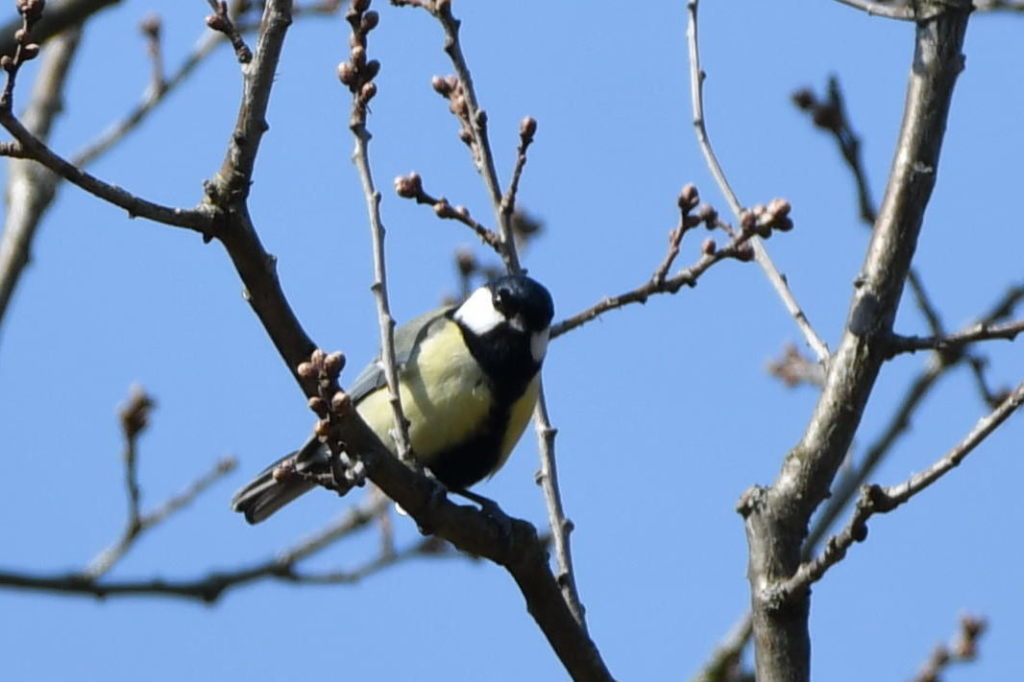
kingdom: Animalia
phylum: Chordata
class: Aves
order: Passeriformes
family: Paridae
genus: Parus
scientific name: Parus major
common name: Great tit
